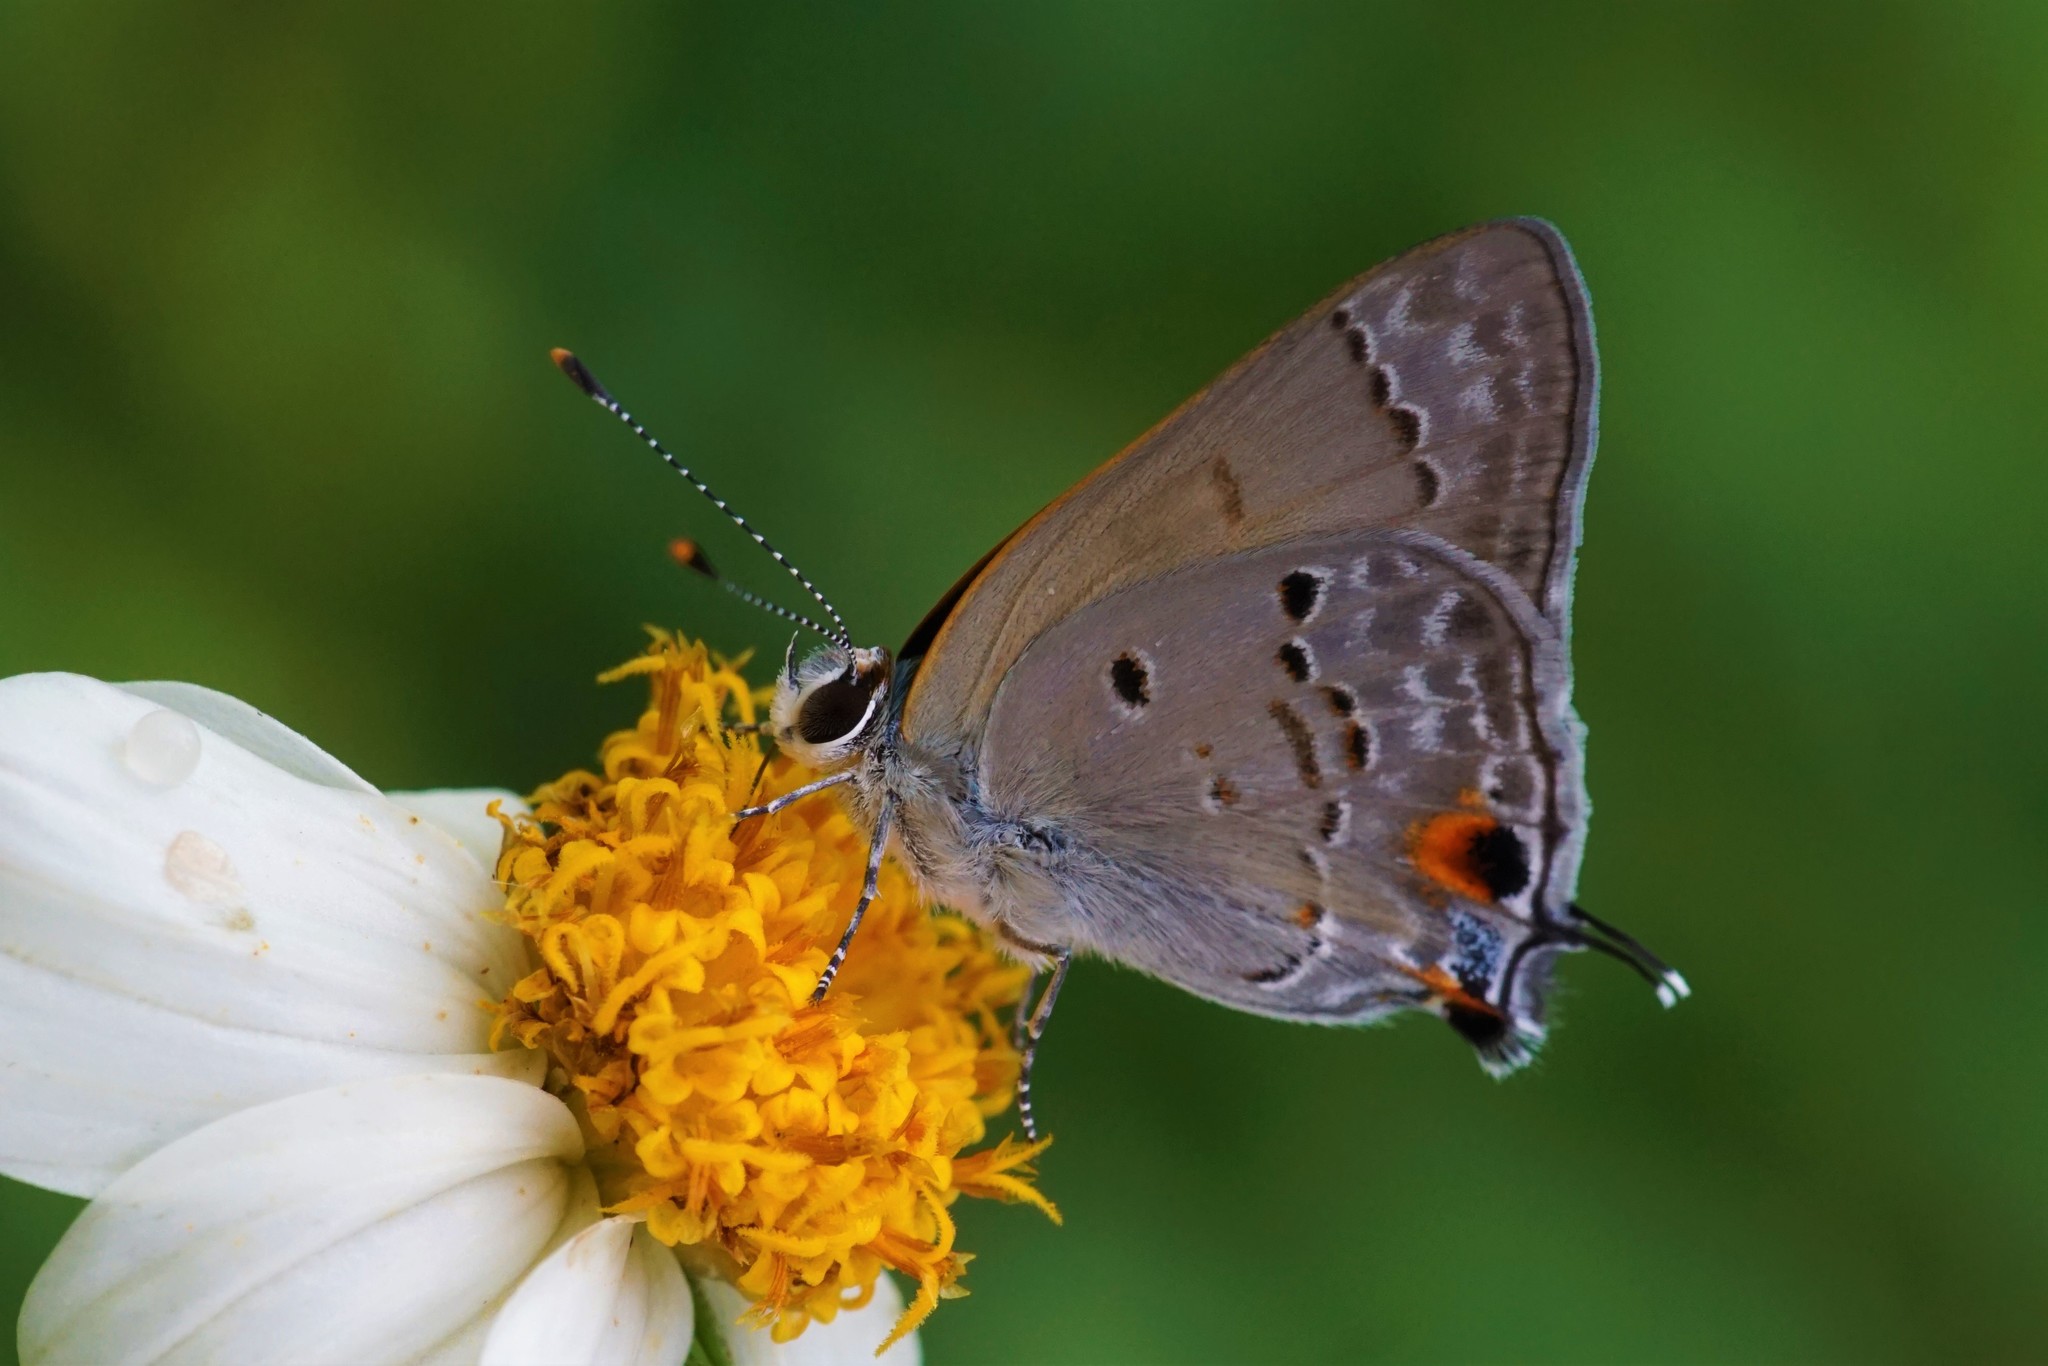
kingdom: Animalia
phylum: Arthropoda
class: Insecta
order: Lepidoptera
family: Lycaenidae
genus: Callicista
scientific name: Callicista columella
